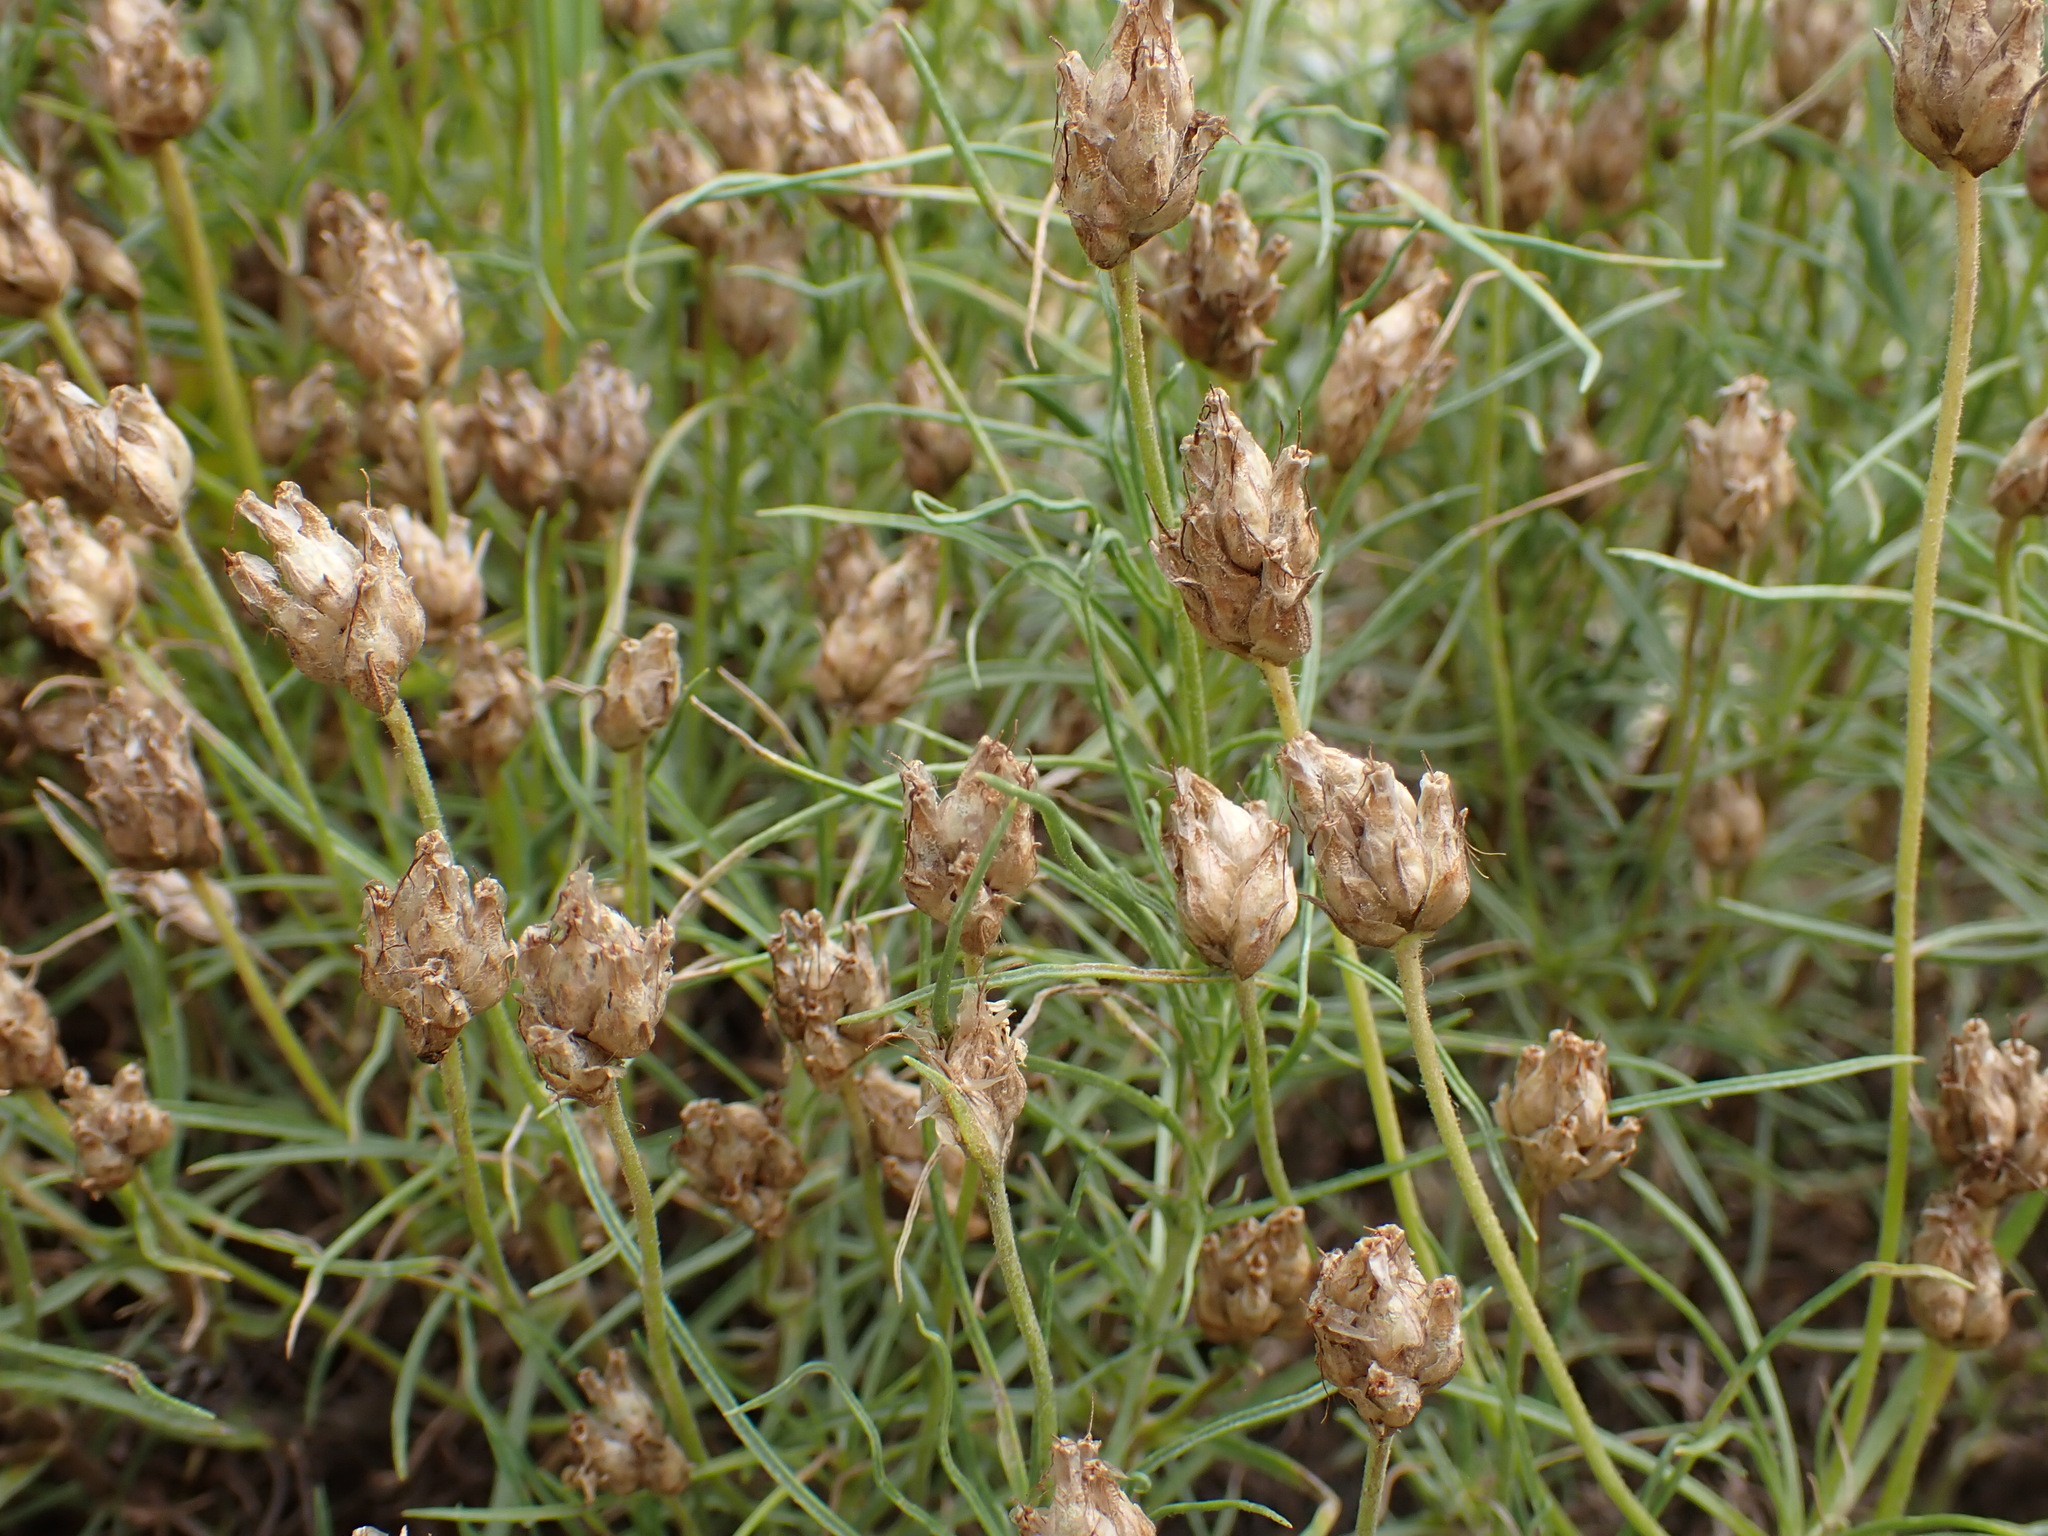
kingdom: Plantae
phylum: Tracheophyta
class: Magnoliopsida
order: Lamiales
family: Plantaginaceae
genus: Plantago
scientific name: Plantago sempervirens
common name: Shrubby plantain
